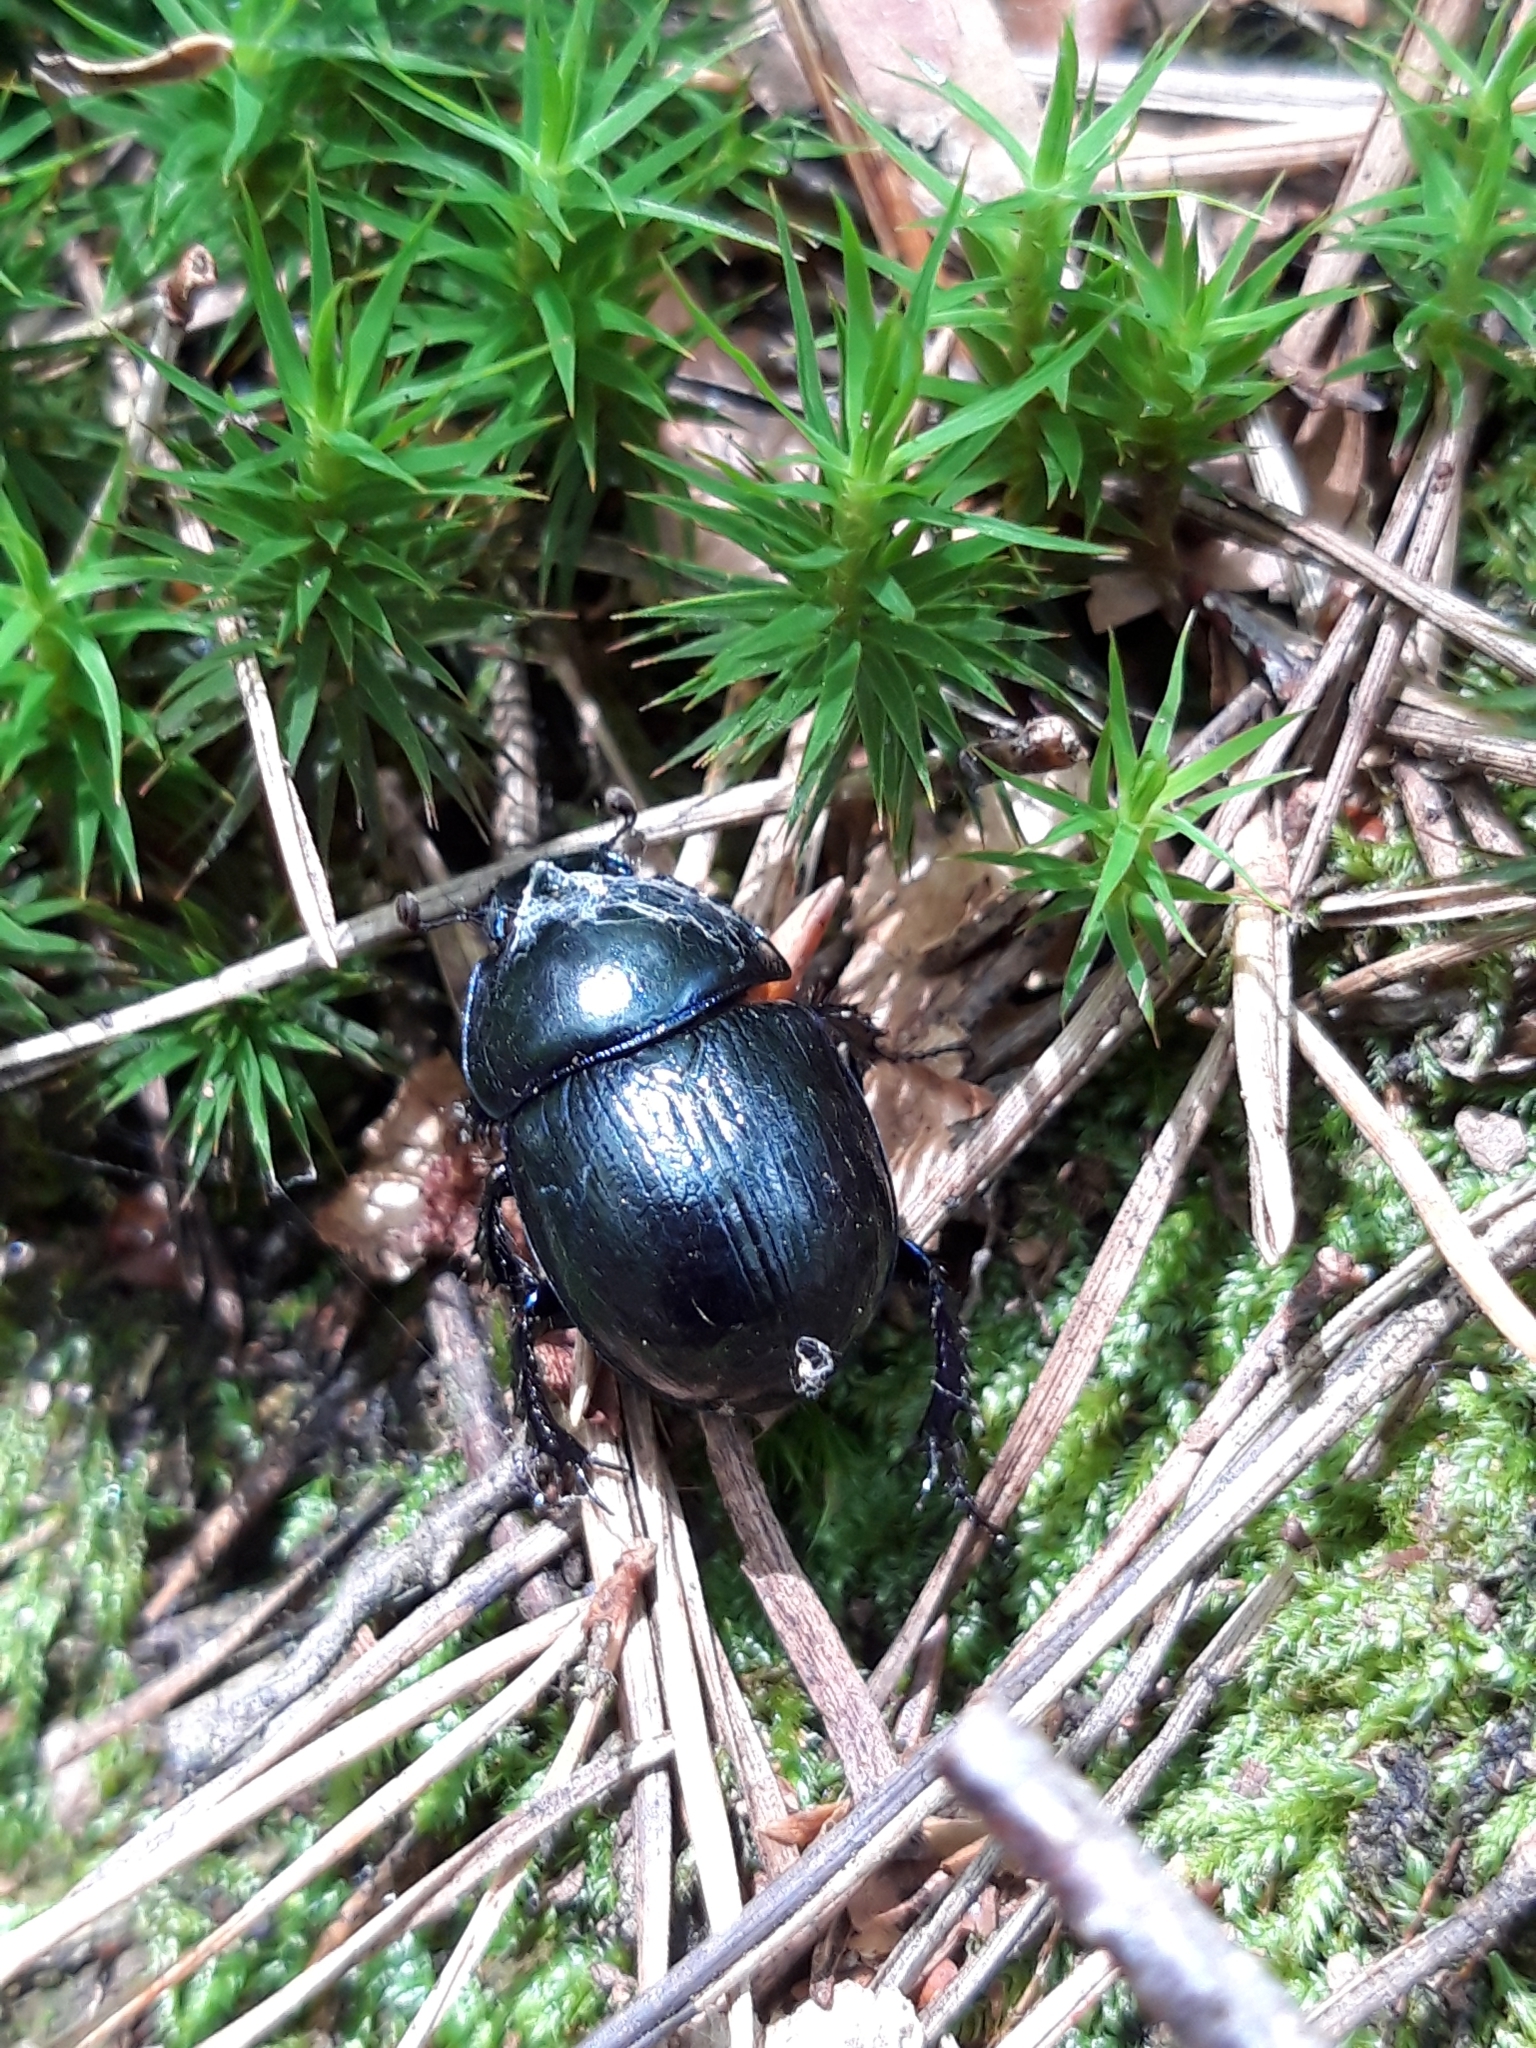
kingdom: Animalia
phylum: Arthropoda
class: Insecta
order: Coleoptera
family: Geotrupidae
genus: Anoplotrupes
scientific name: Anoplotrupes stercorosus
